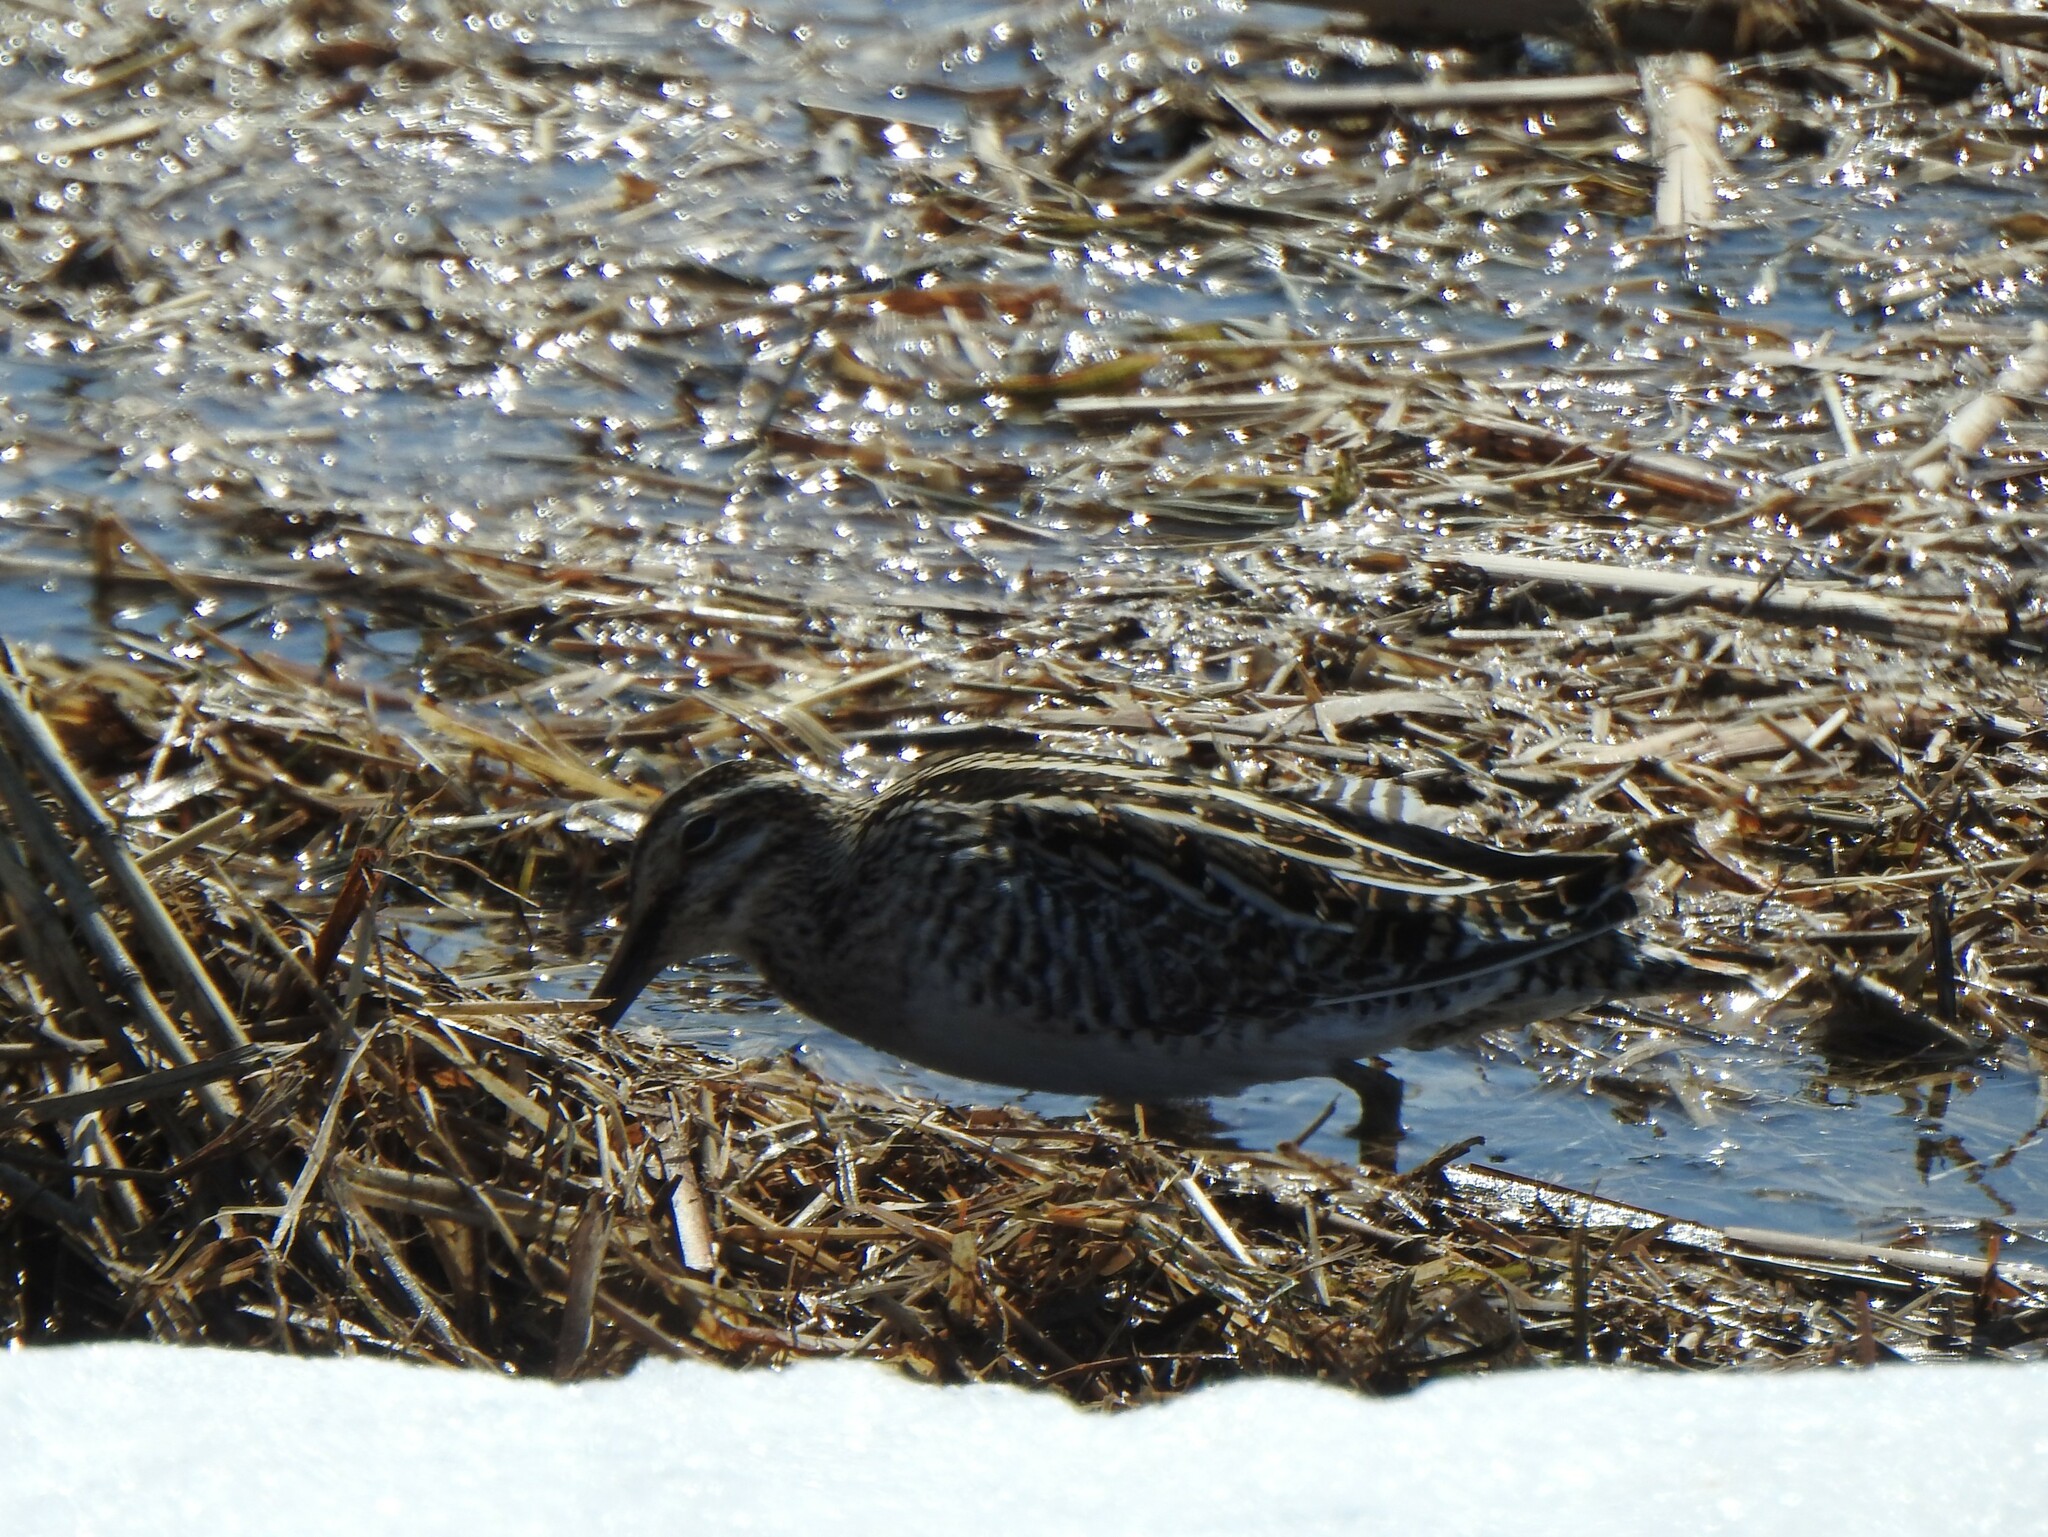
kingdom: Animalia
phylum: Chordata
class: Aves
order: Charadriiformes
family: Scolopacidae
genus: Gallinago
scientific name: Gallinago delicata
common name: Wilson's snipe
